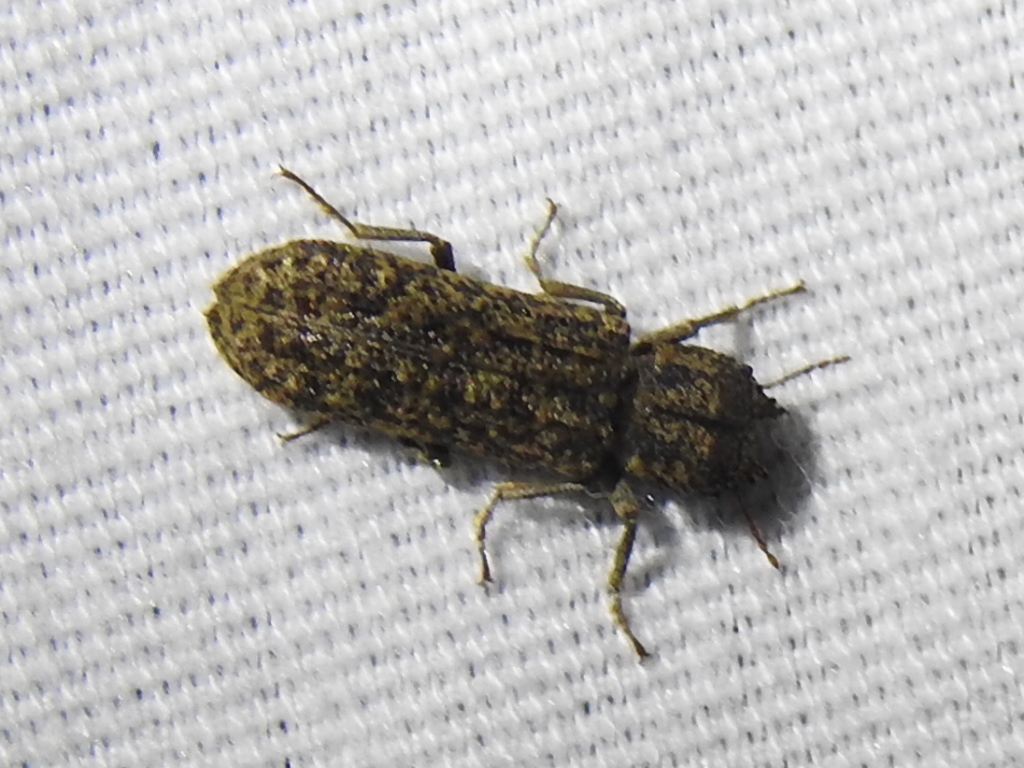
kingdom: Animalia
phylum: Arthropoda
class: Insecta
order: Coleoptera
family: Bostrichidae
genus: Lichenophanes
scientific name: Lichenophanes bicornis
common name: Two-horned powder-post beetle
